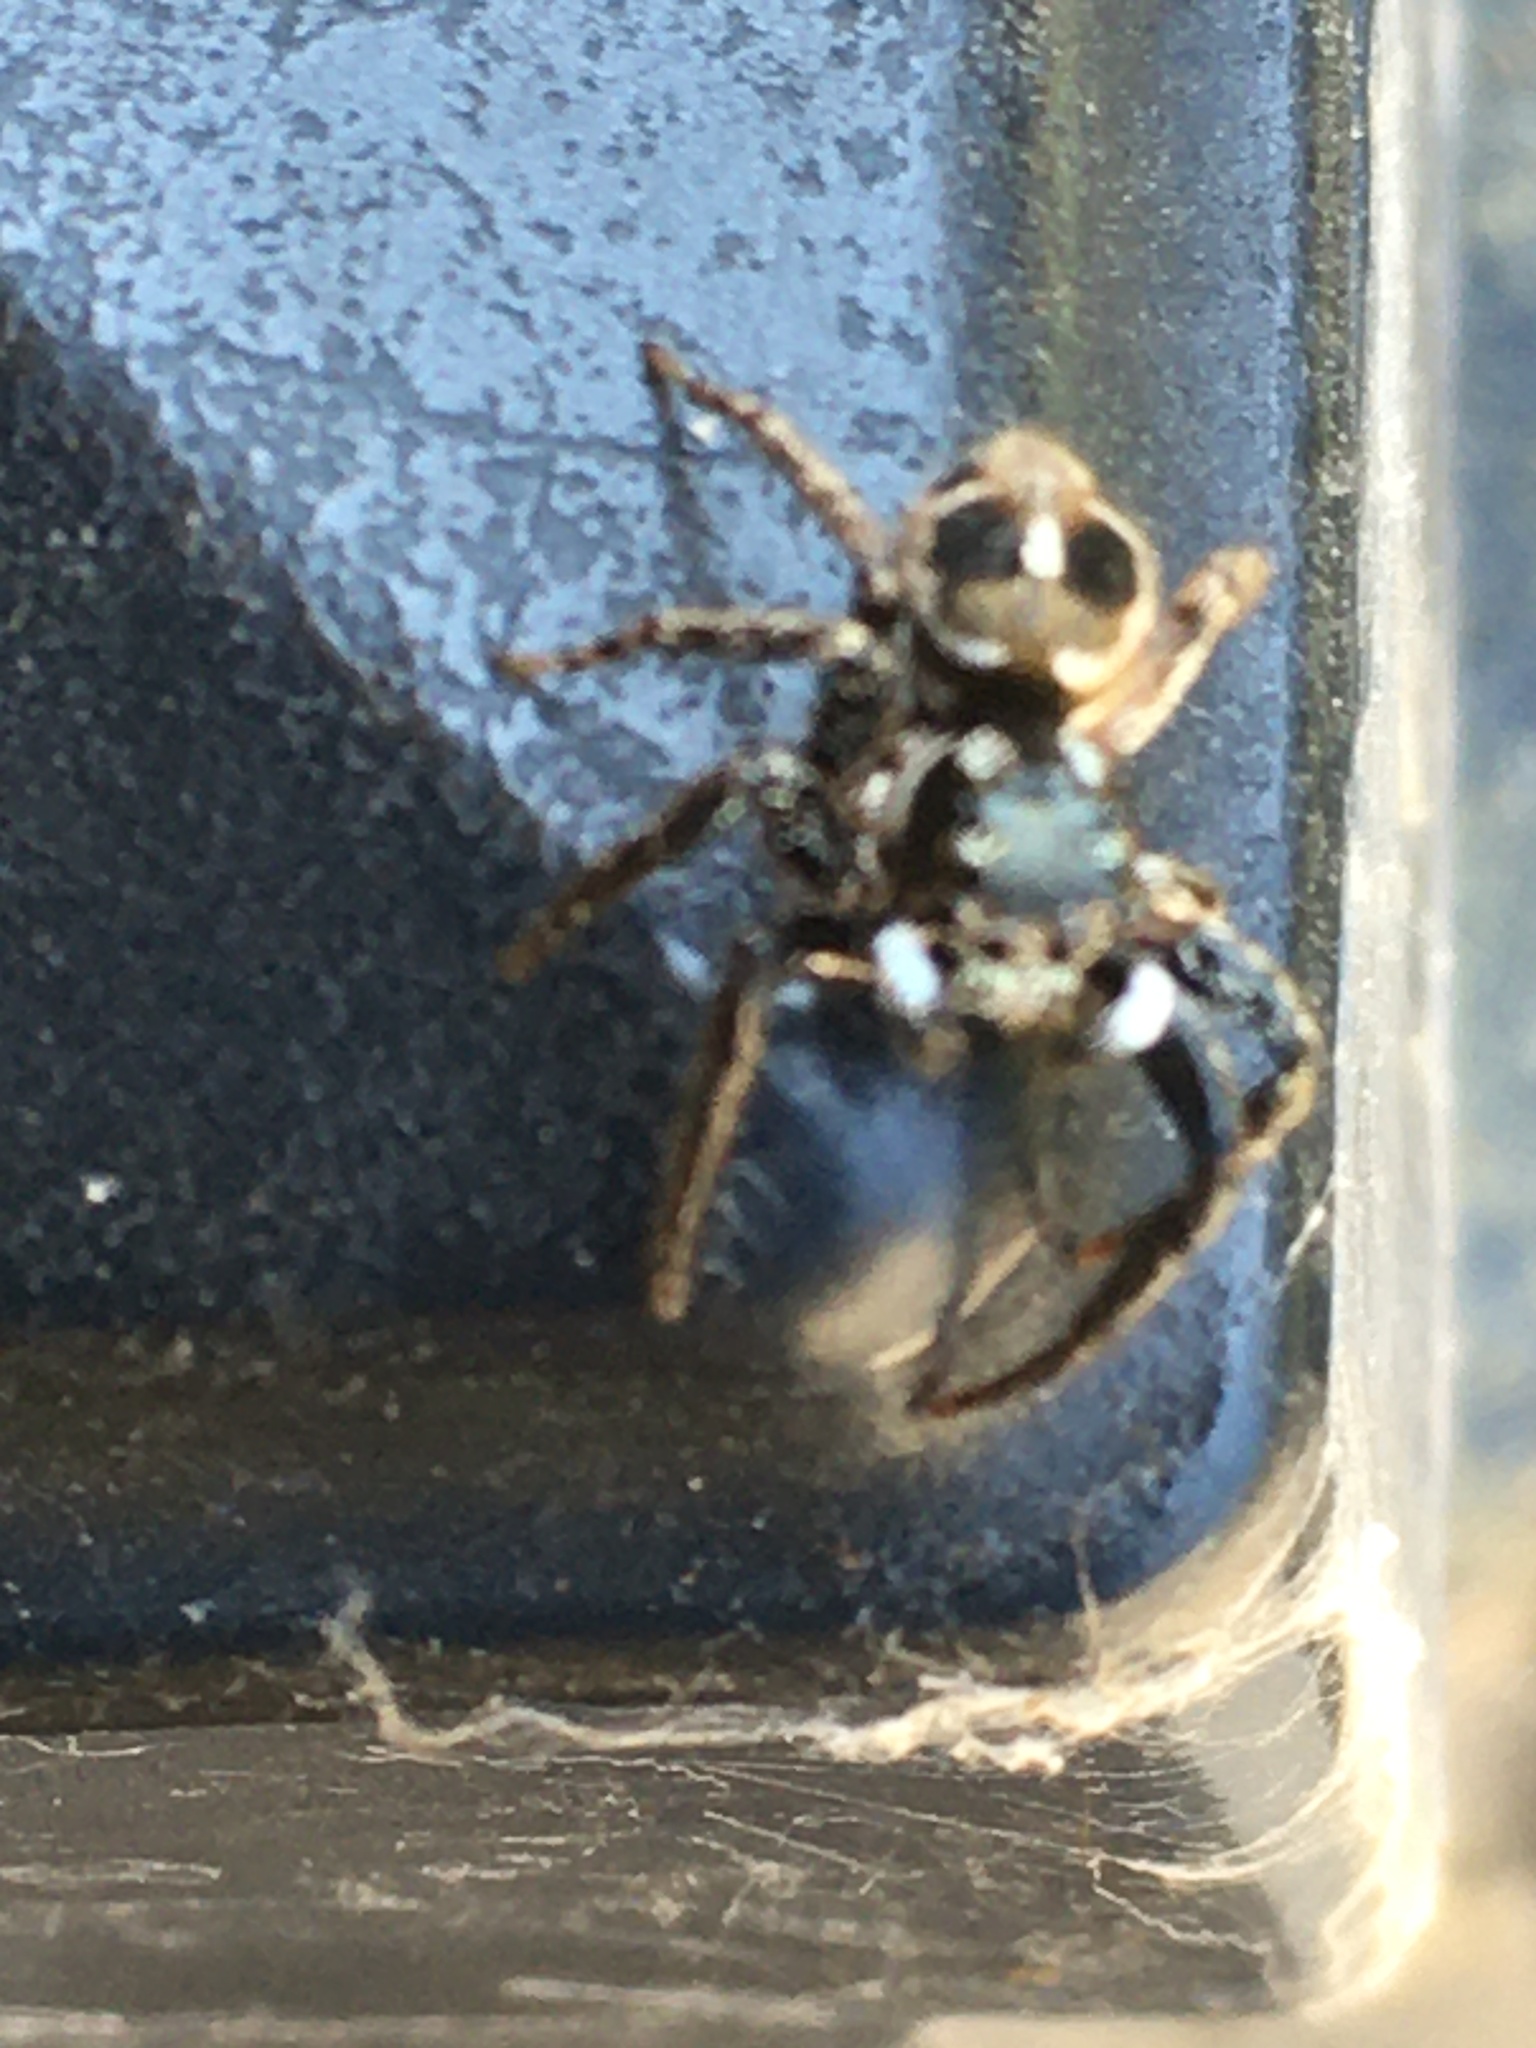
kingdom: Animalia
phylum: Arthropoda
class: Arachnida
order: Araneae
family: Salticidae
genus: Anasaitis
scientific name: Anasaitis canosa
